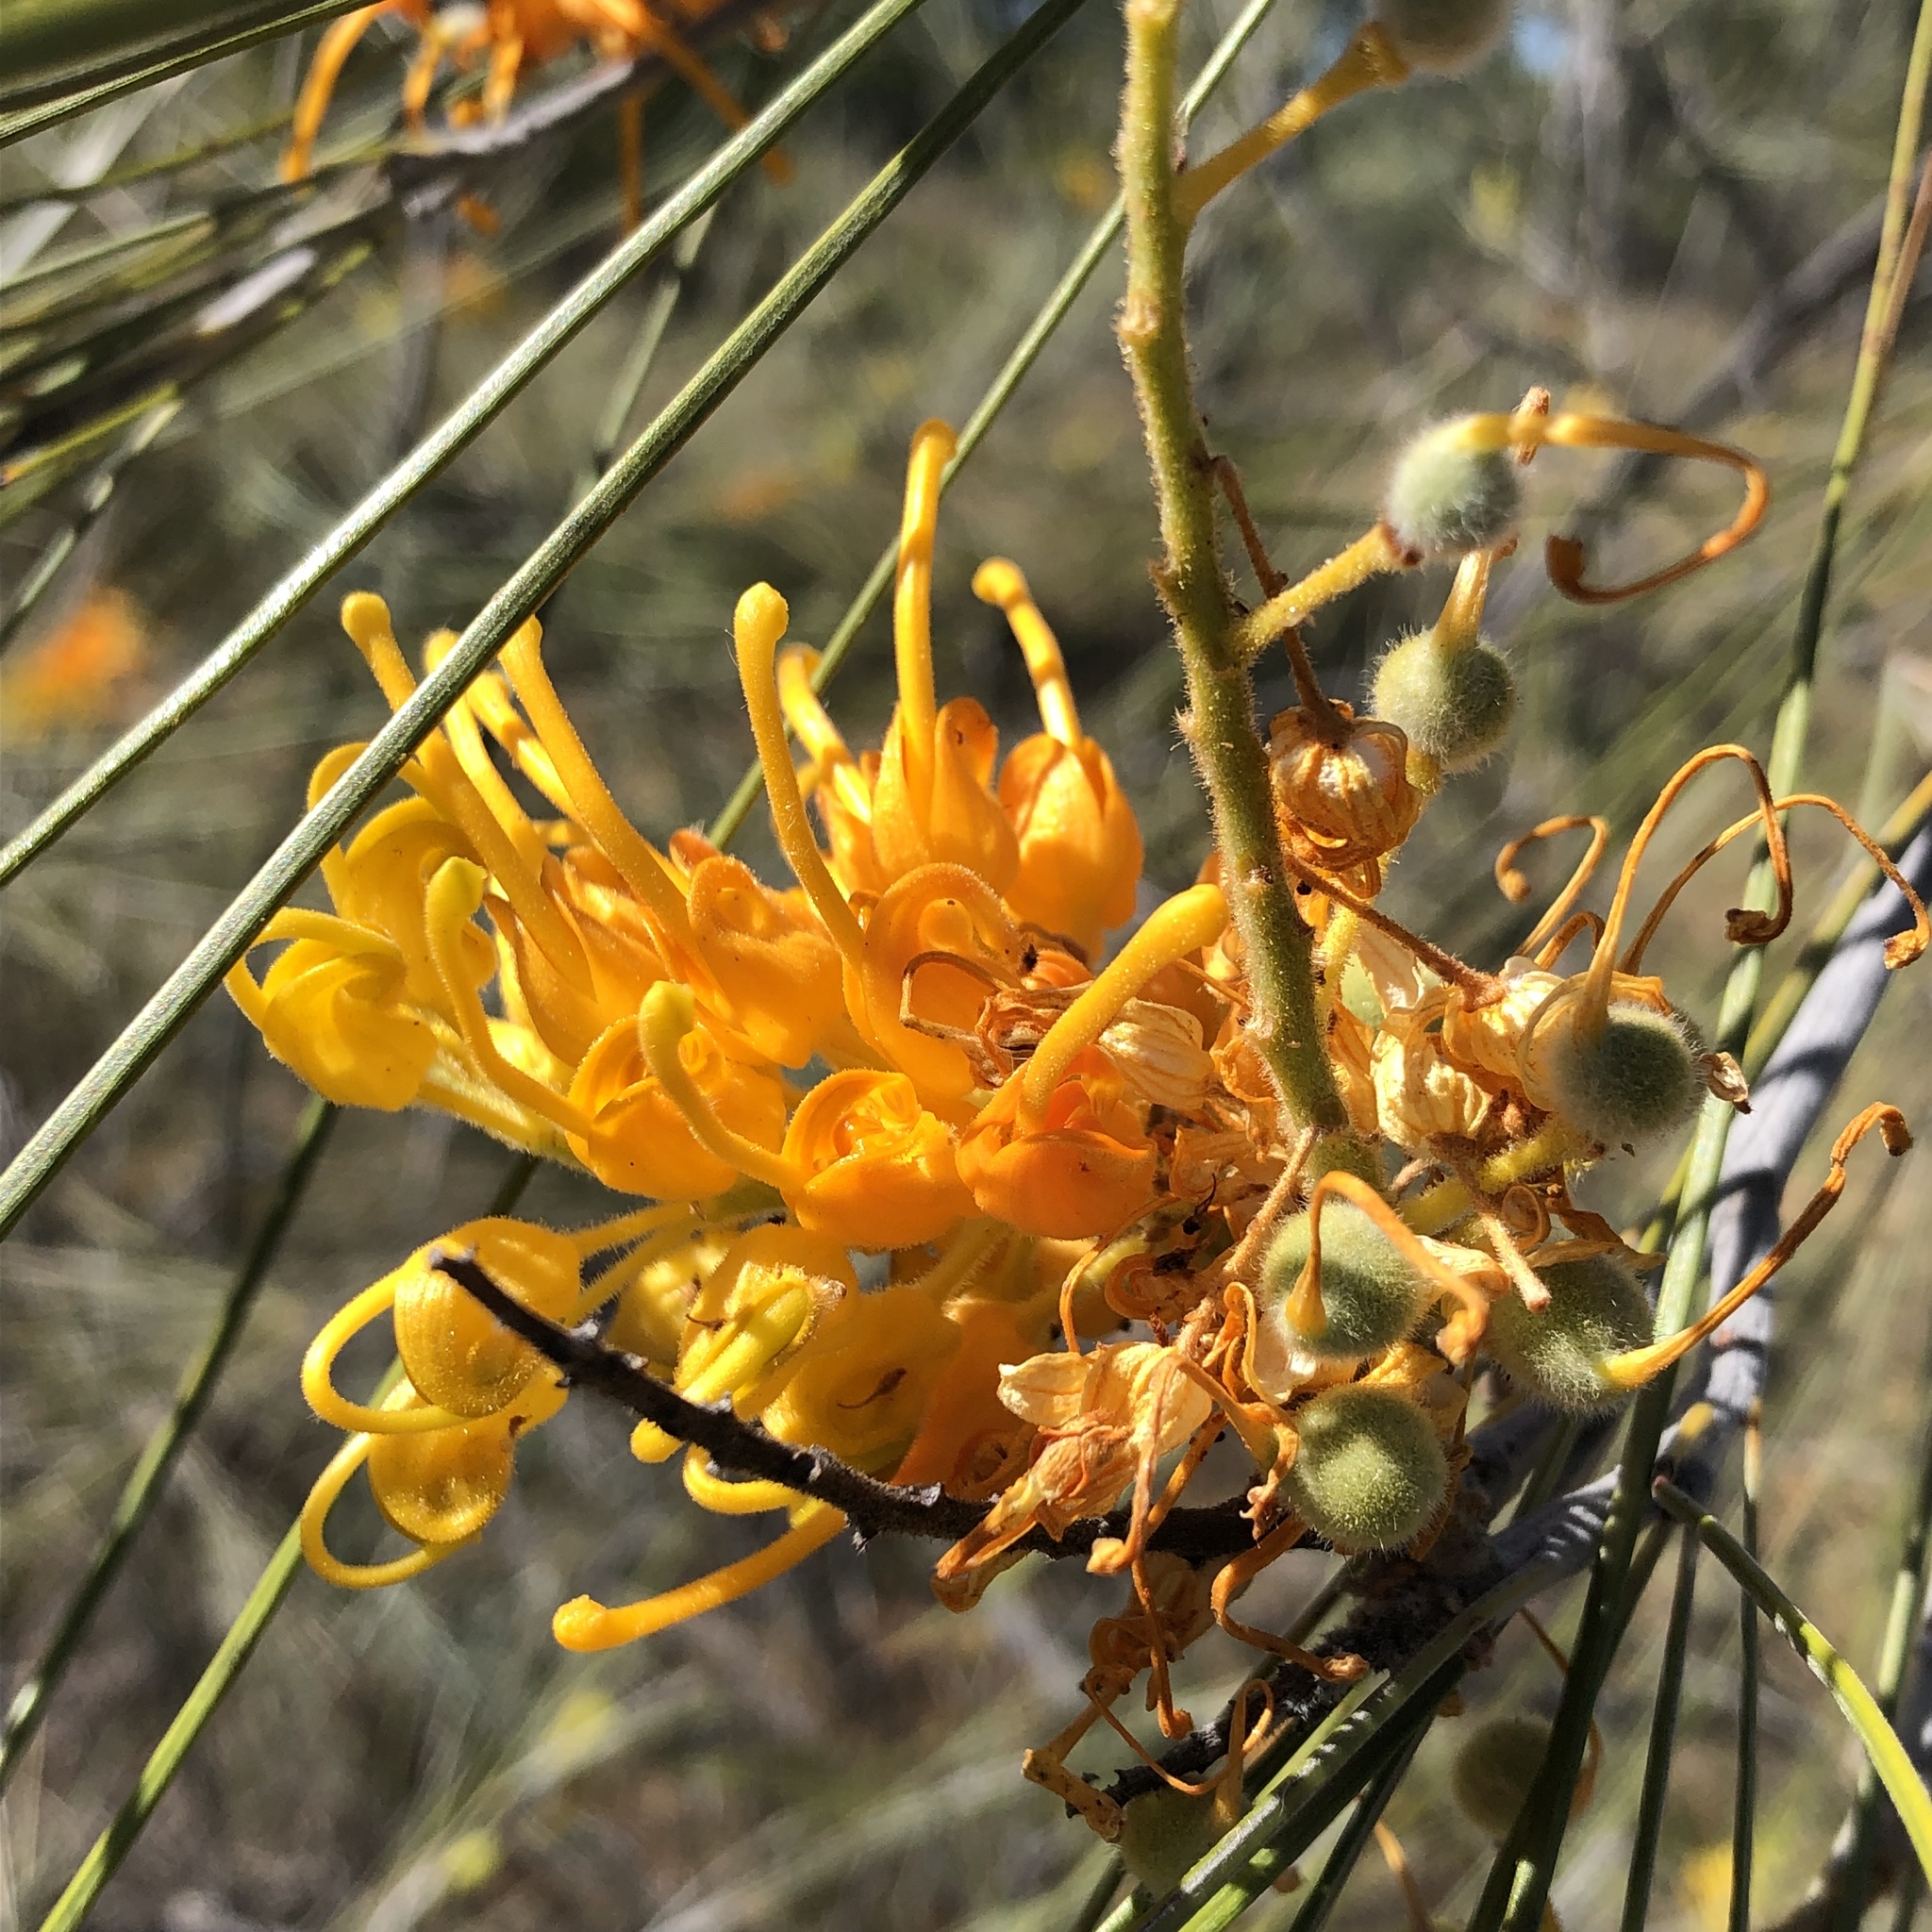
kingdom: Plantae
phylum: Tracheophyta
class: Magnoliopsida
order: Proteales
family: Proteaceae
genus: Grevillea
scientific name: Grevillea juncifolia
